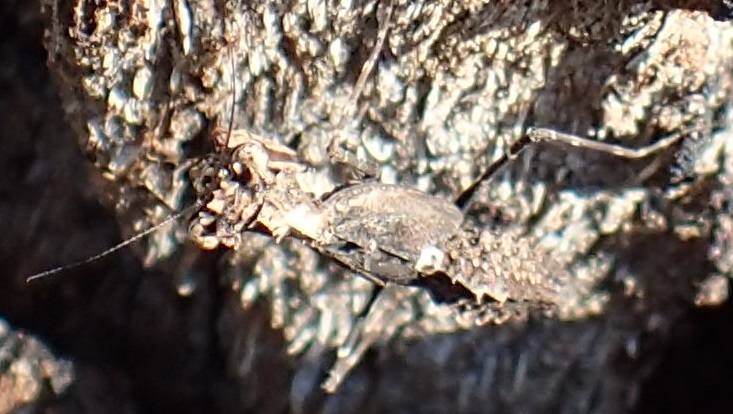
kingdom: Animalia
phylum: Arthropoda
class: Insecta
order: Mantodea
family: Nanomantidae
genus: Paraoxypilus
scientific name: Paraoxypilus tasmaniensis
